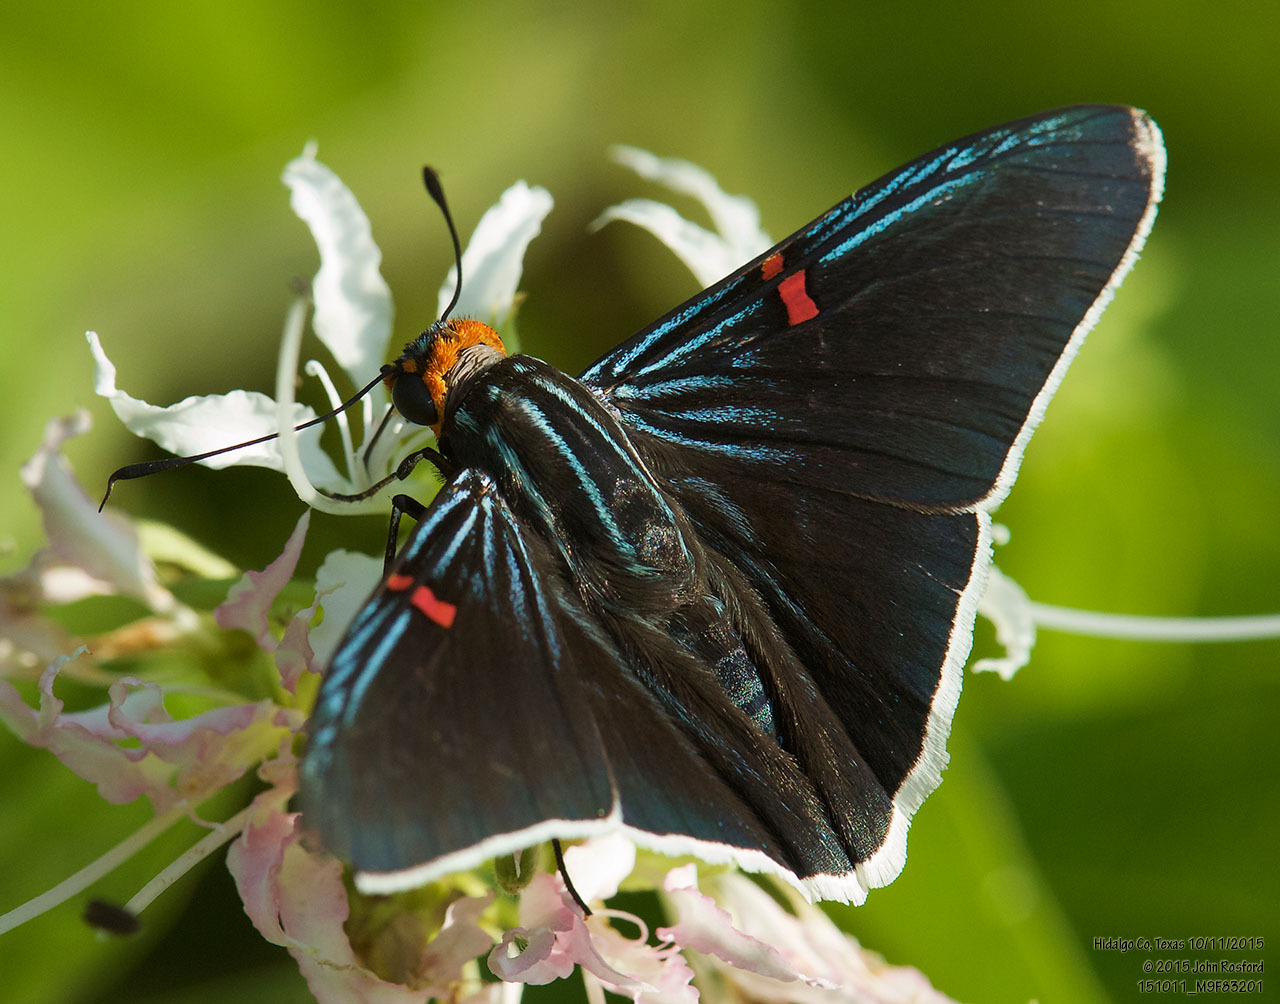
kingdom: Animalia
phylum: Arthropoda
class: Insecta
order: Lepidoptera
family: Hesperiidae
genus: Phocides
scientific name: Phocides lilea
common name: Guava skipper
